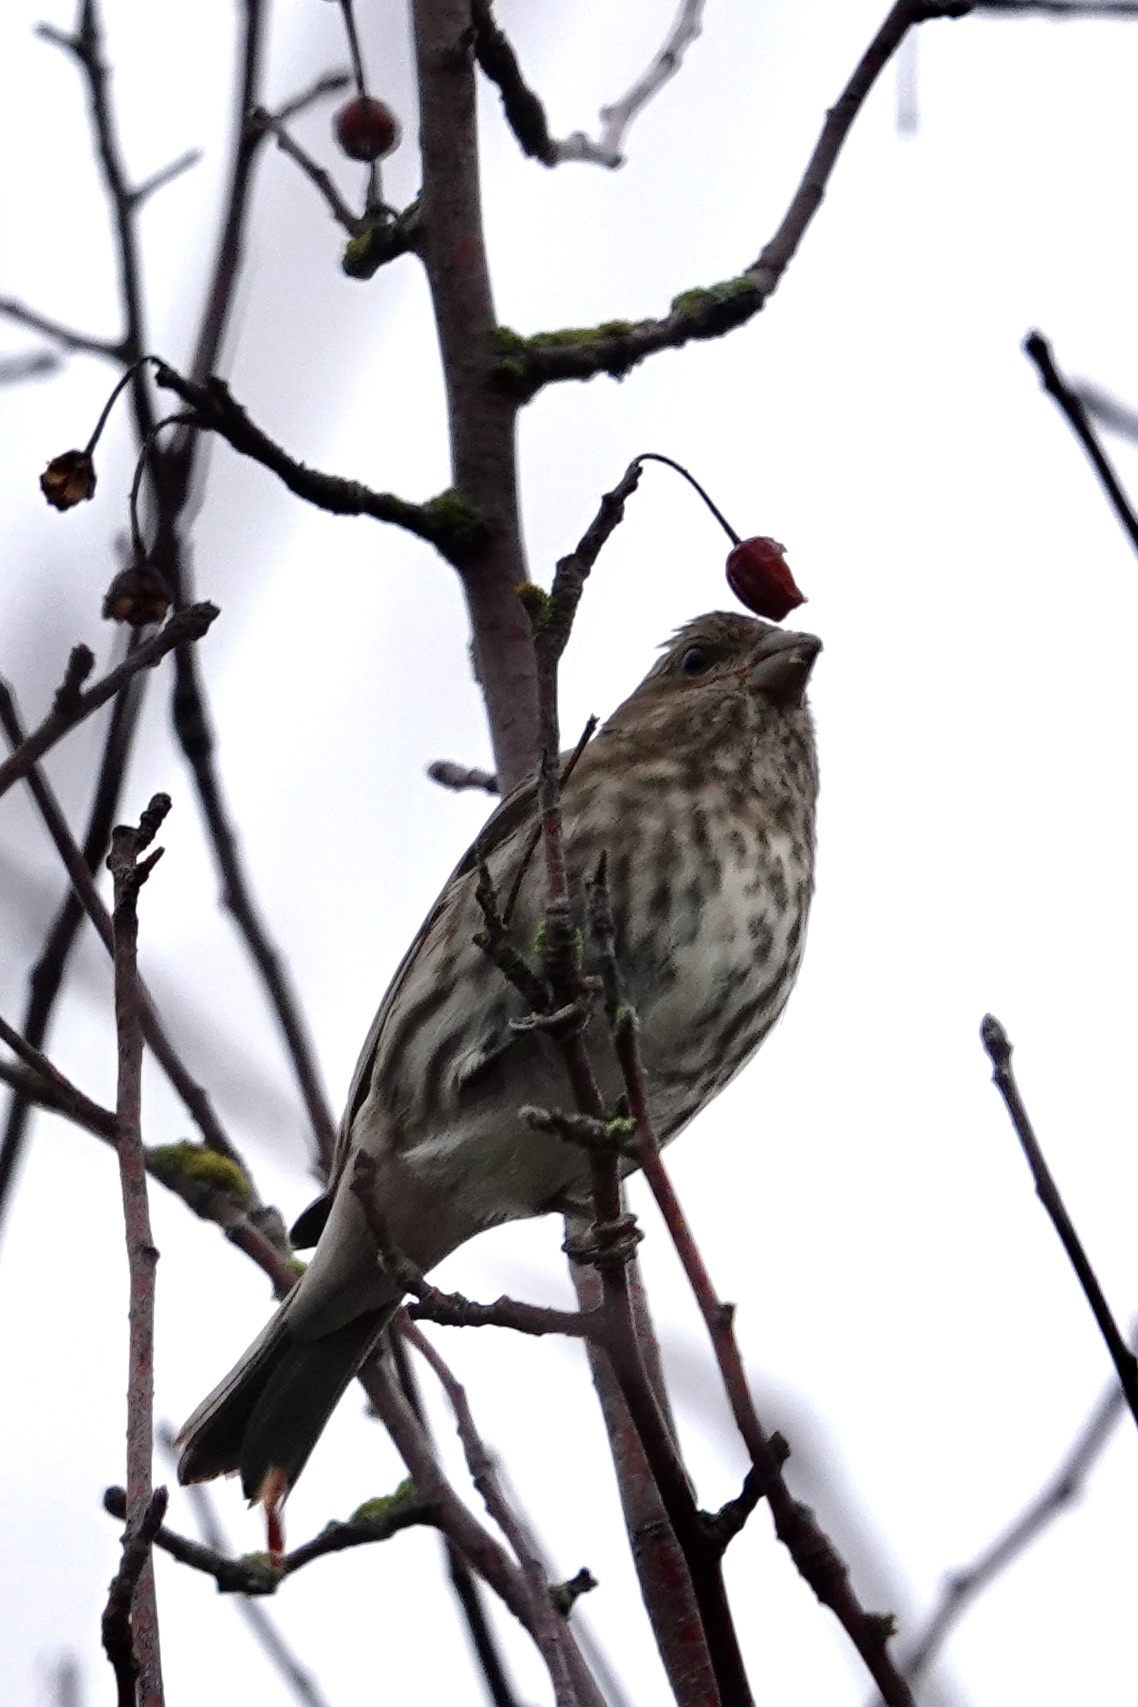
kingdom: Animalia
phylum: Chordata
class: Aves
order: Passeriformes
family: Fringillidae
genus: Haemorhous
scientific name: Haemorhous mexicanus
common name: House finch
